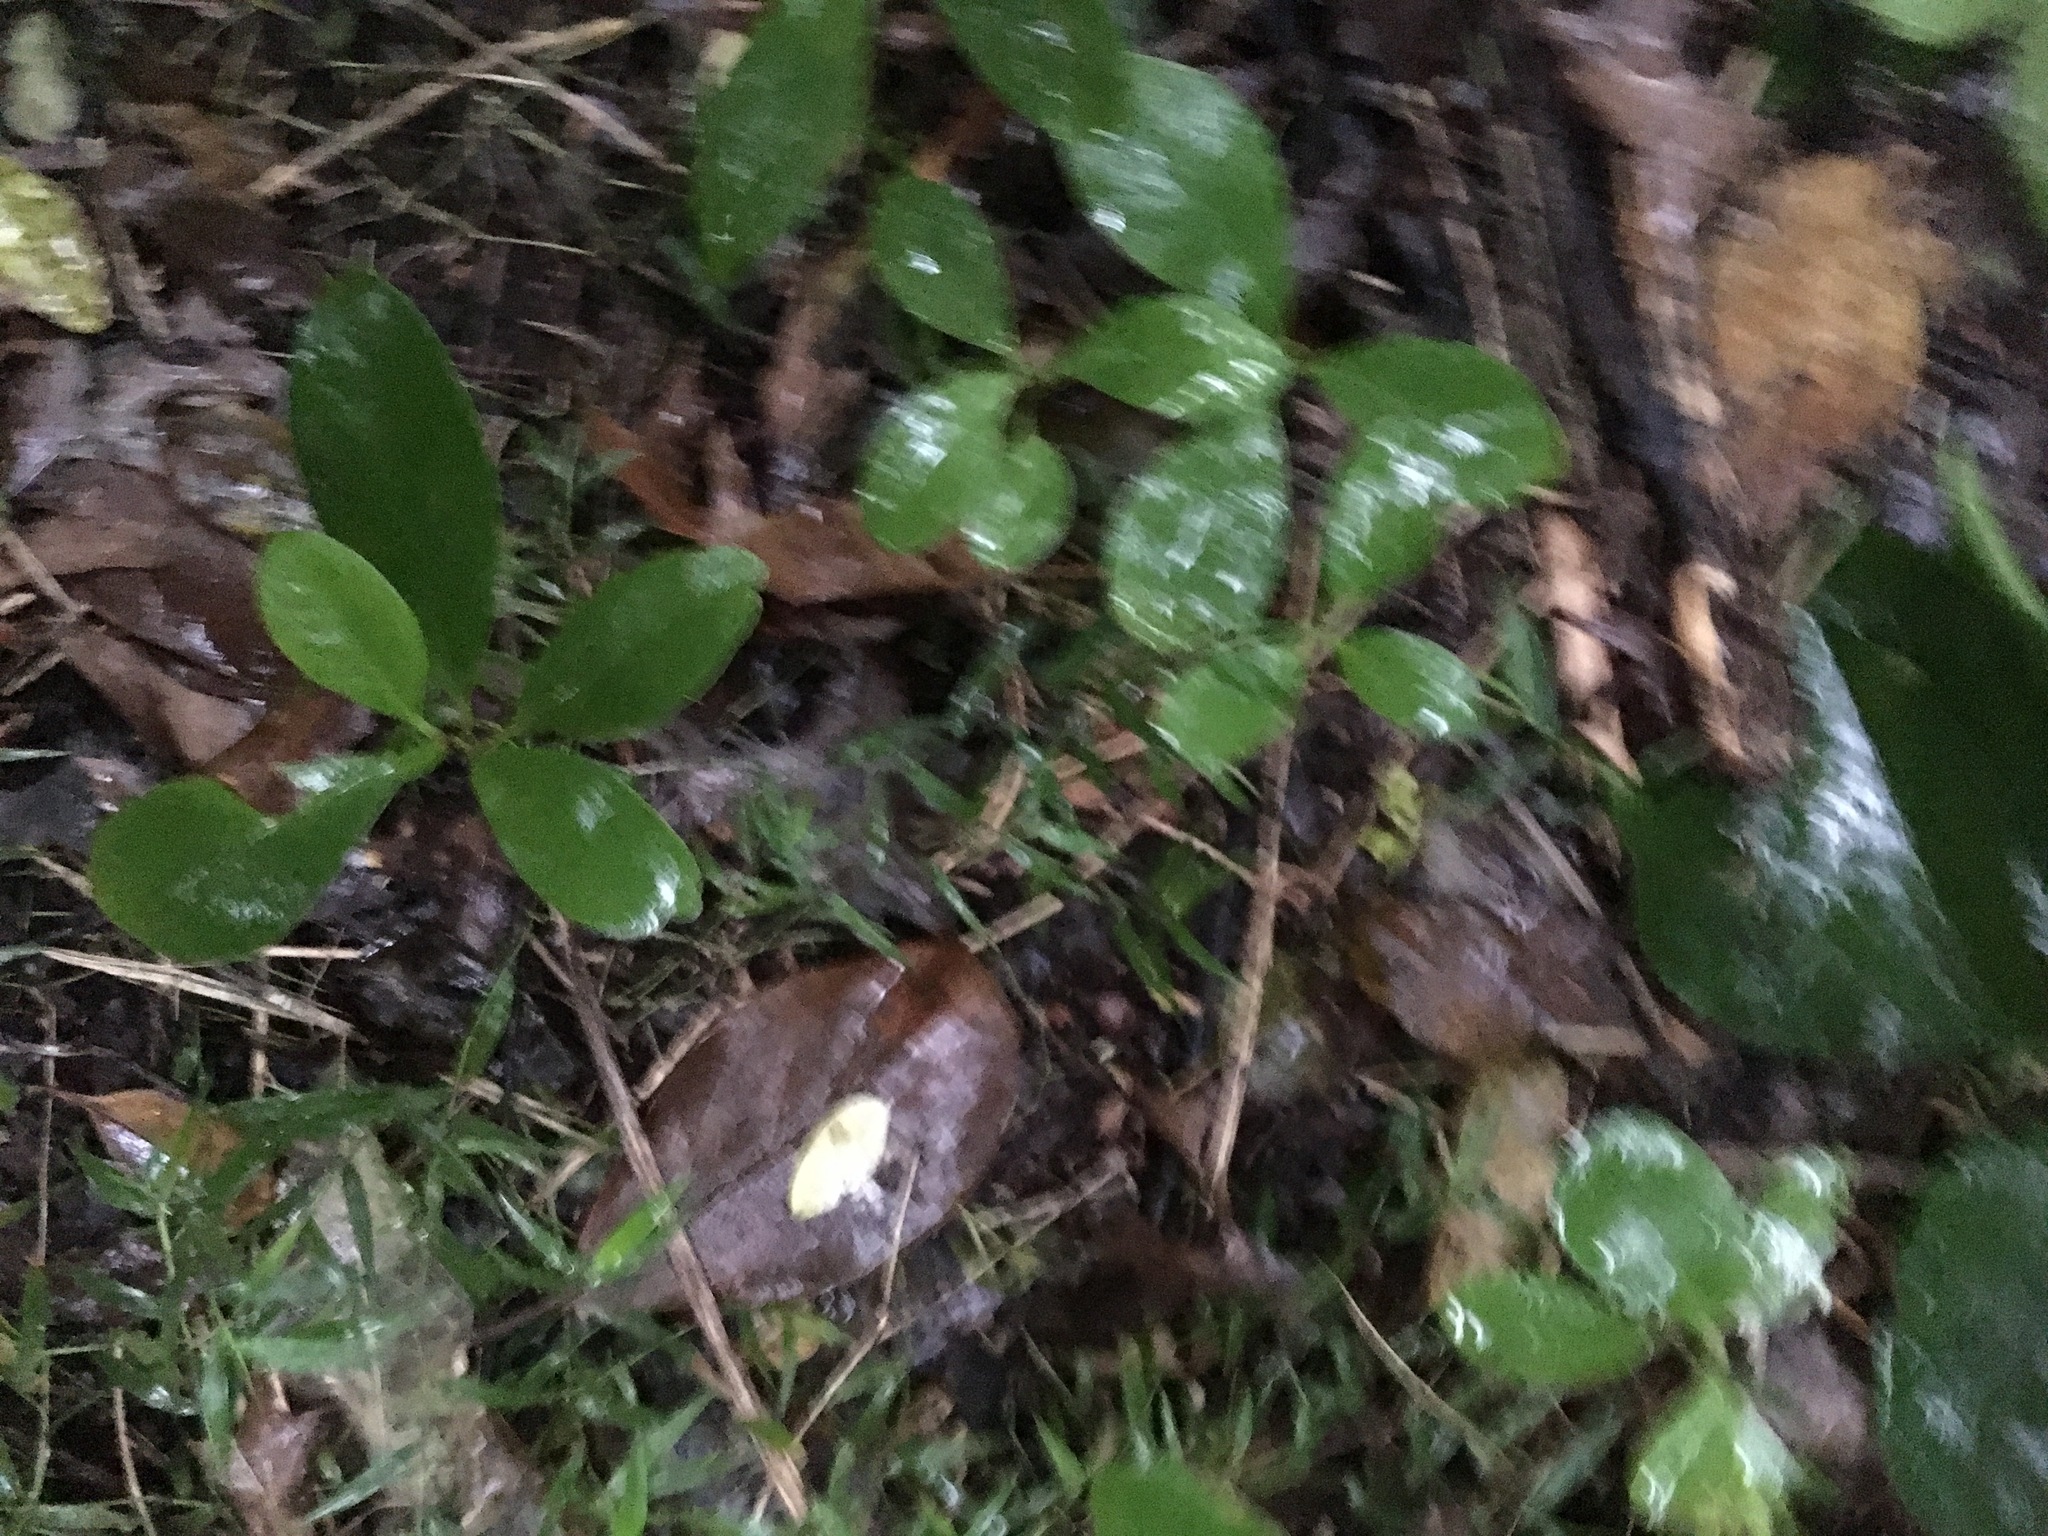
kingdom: Plantae
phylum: Tracheophyta
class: Magnoliopsida
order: Cucurbitales
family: Corynocarpaceae
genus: Corynocarpus
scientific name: Corynocarpus laevigatus
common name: New zealand laurel
